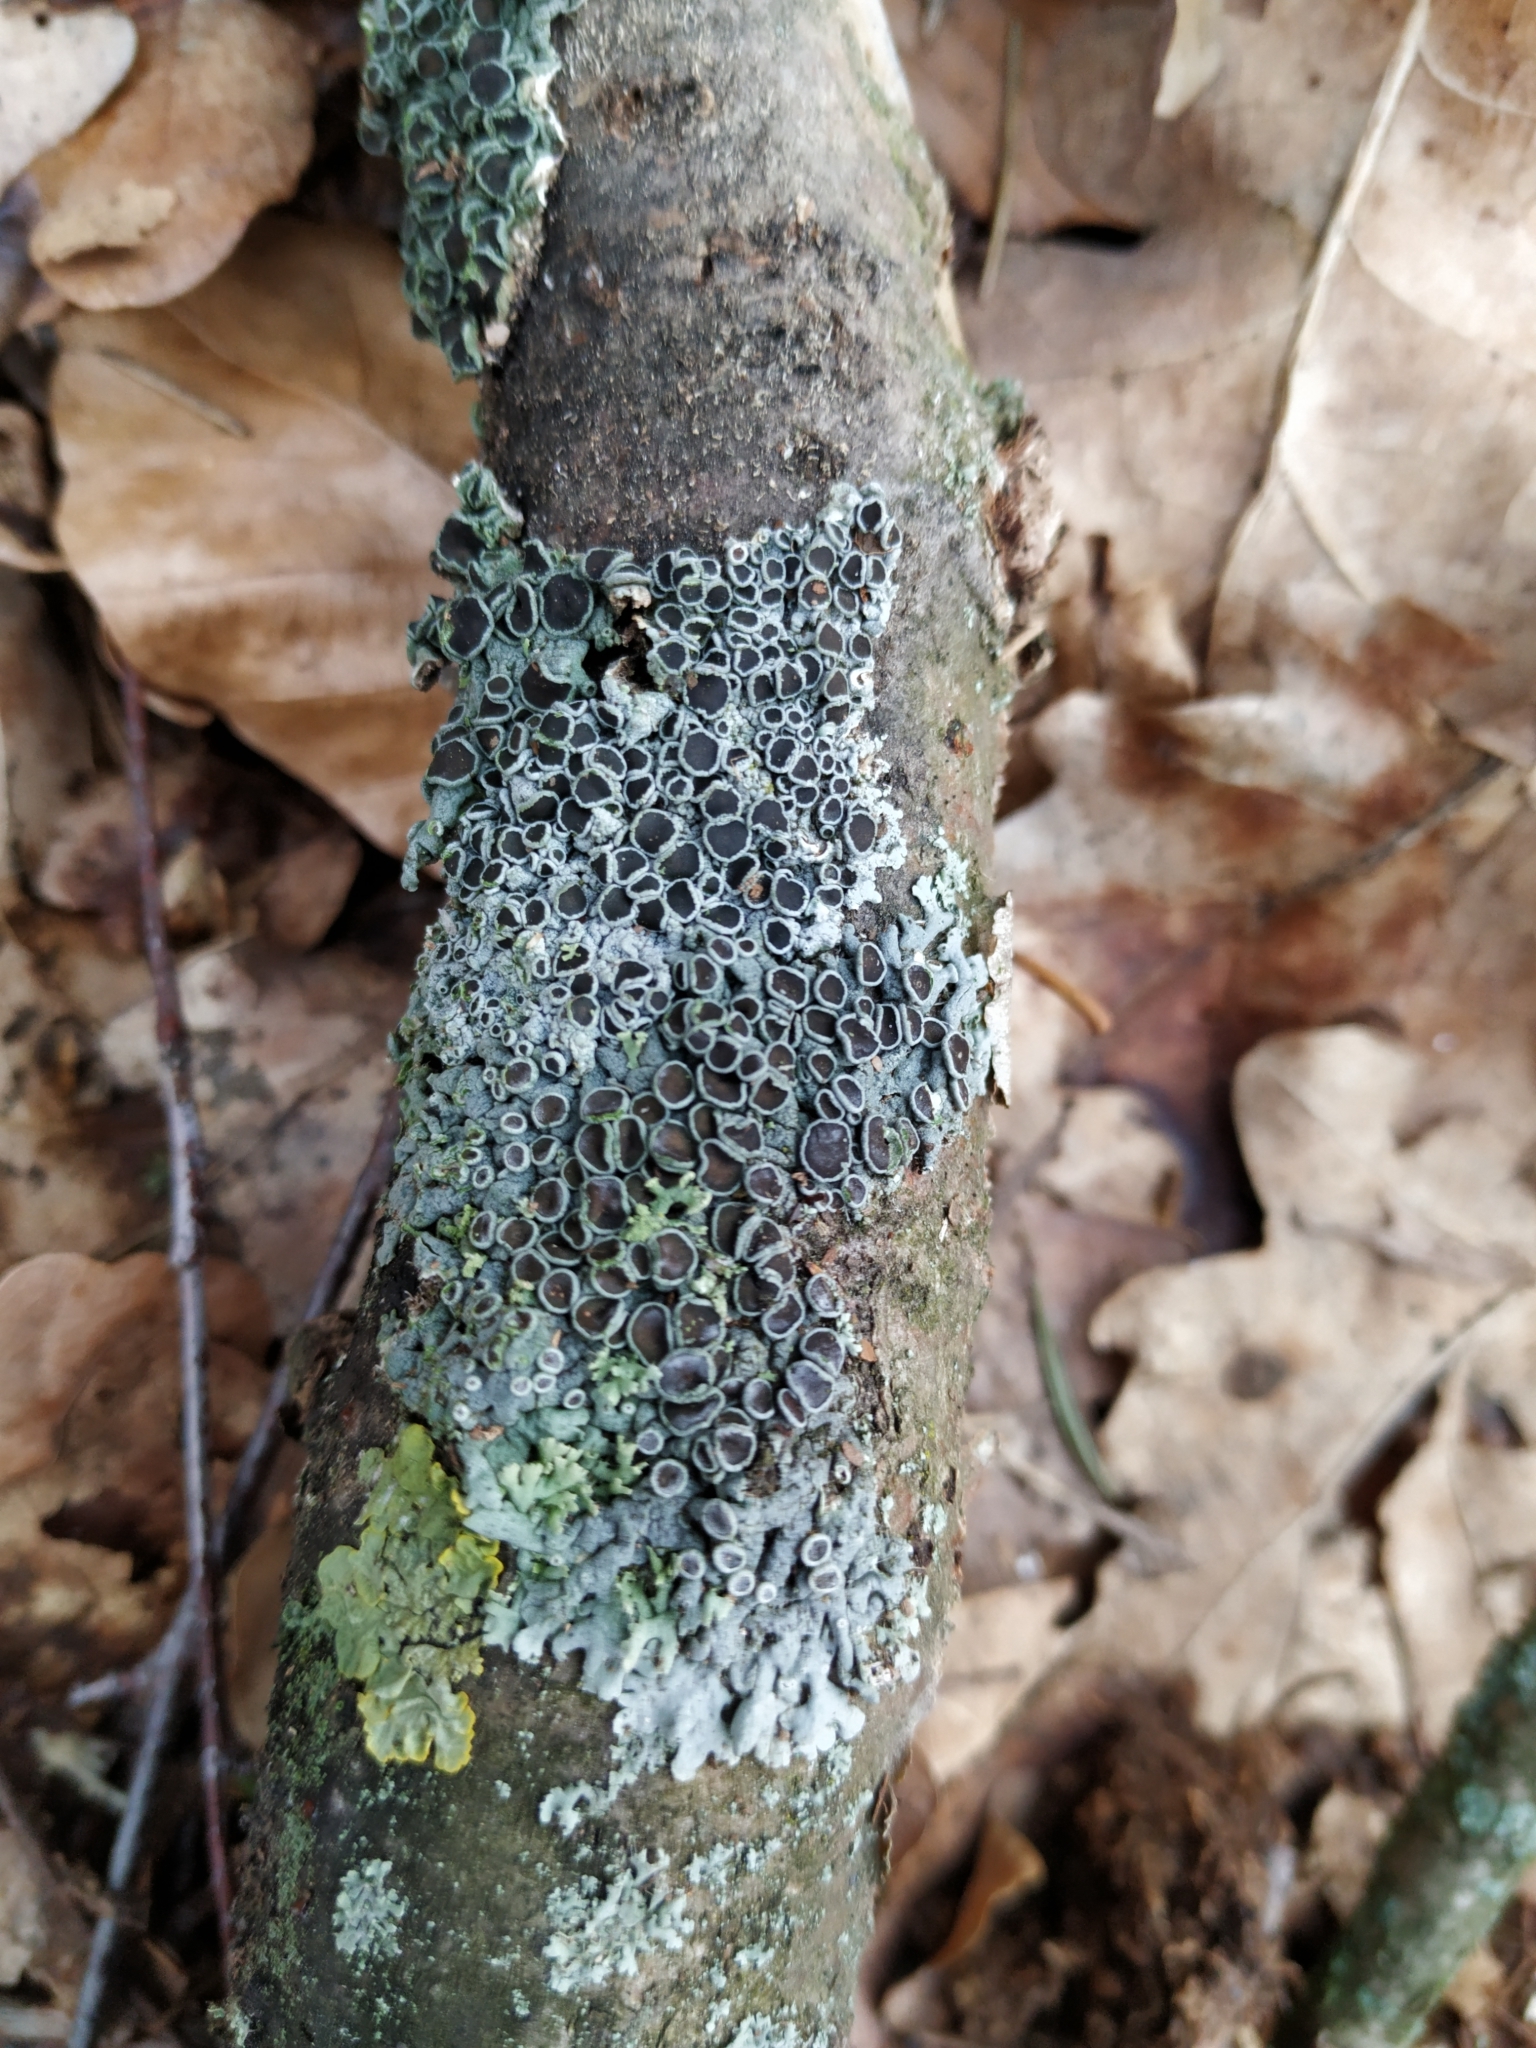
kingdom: Fungi
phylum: Ascomycota
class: Lecanoromycetes
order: Caliciales
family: Physciaceae
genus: Physcia
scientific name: Physcia stellaris
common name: Star rosette lichen
